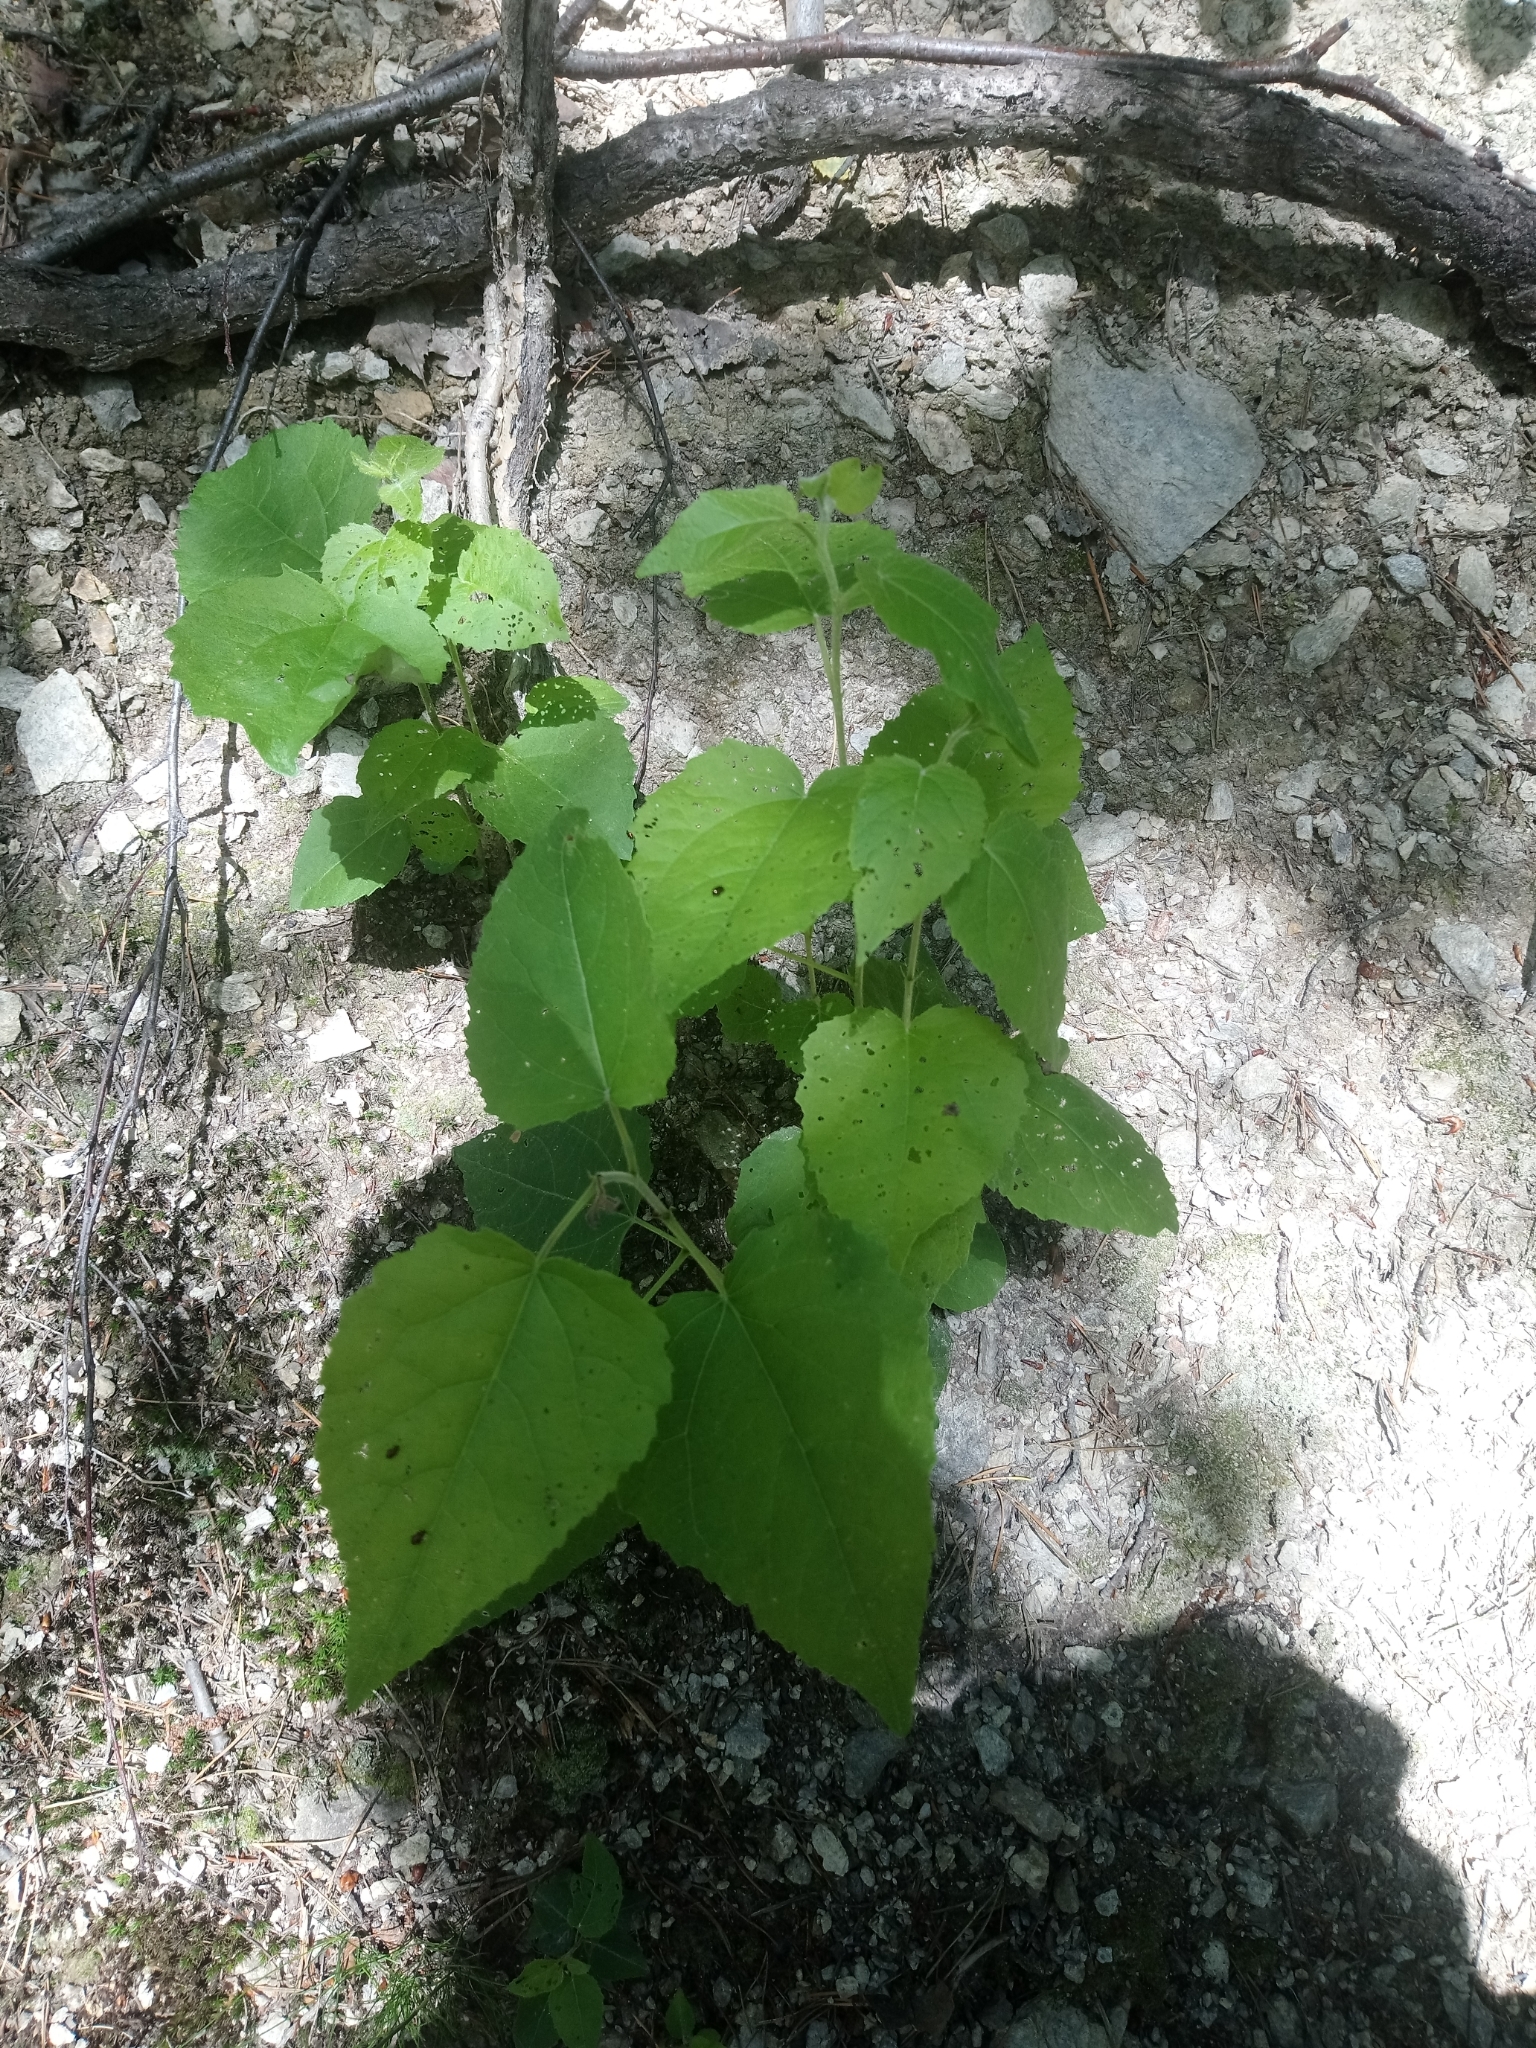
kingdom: Plantae
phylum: Tracheophyta
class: Magnoliopsida
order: Malpighiales
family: Salicaceae
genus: Populus
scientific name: Populus tremula
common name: European aspen
